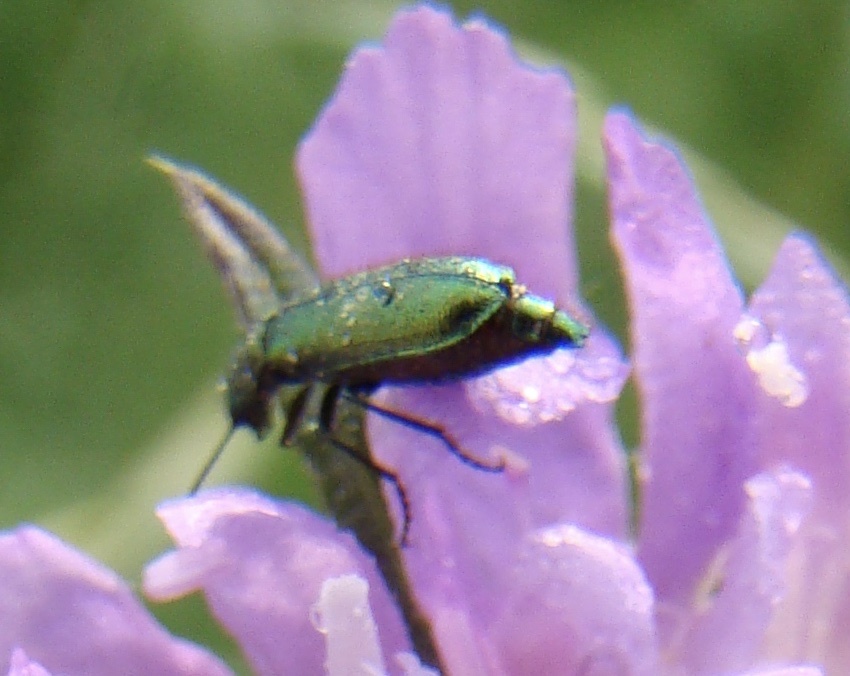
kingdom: Animalia
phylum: Arthropoda
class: Insecta
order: Coleoptera
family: Dasytidae
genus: Psilothrix
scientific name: Psilothrix viridicoerulea
